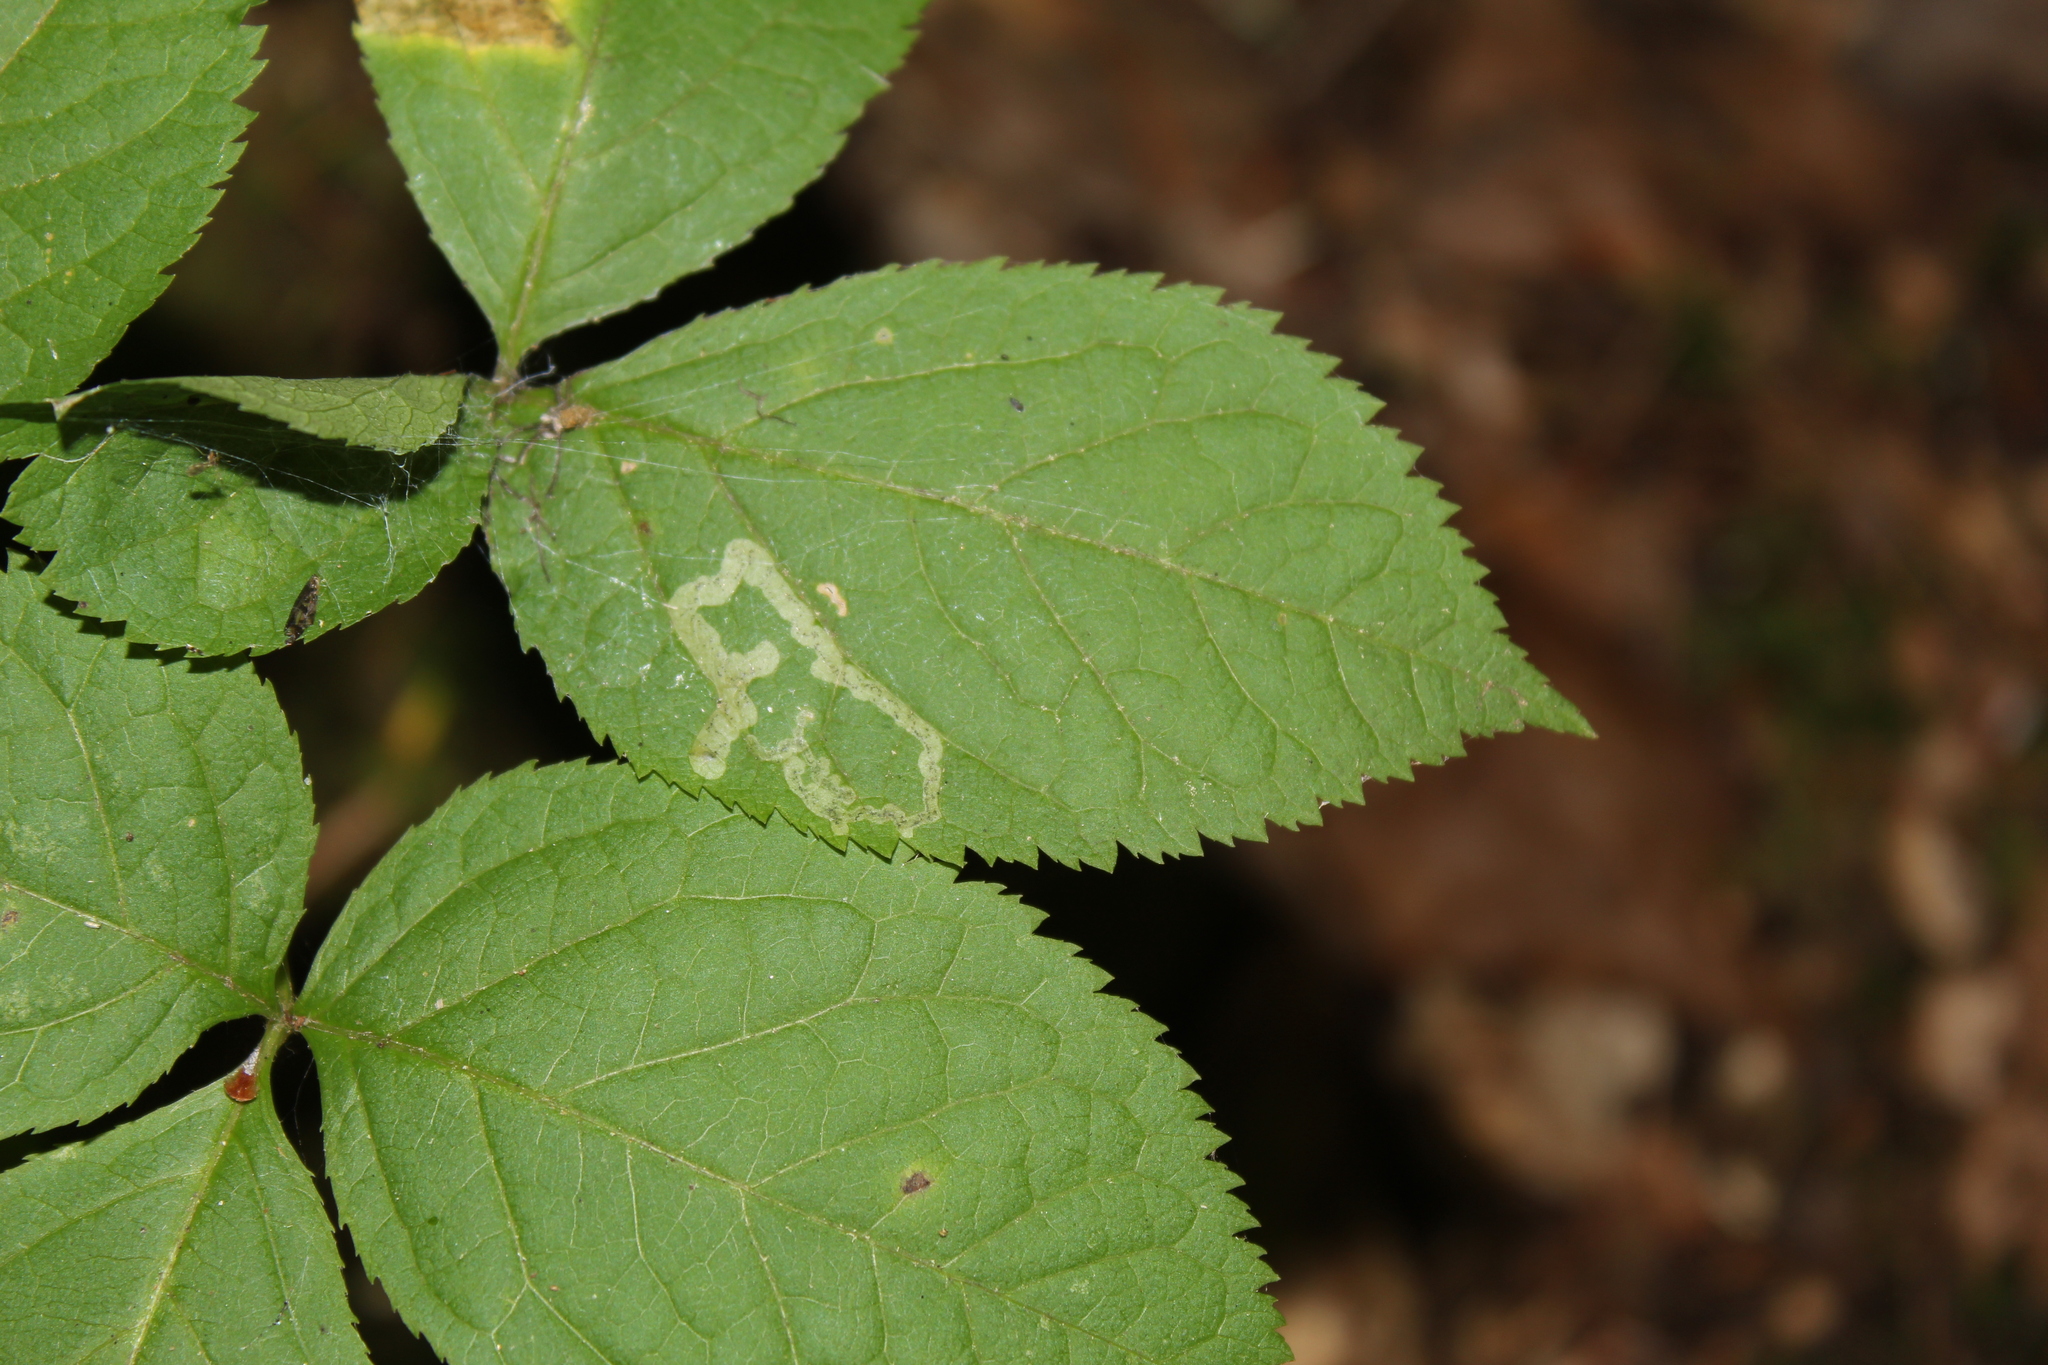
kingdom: Animalia
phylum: Arthropoda
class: Insecta
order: Diptera
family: Agromyzidae
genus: Phytomyza
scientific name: Phytomyza aralivora
